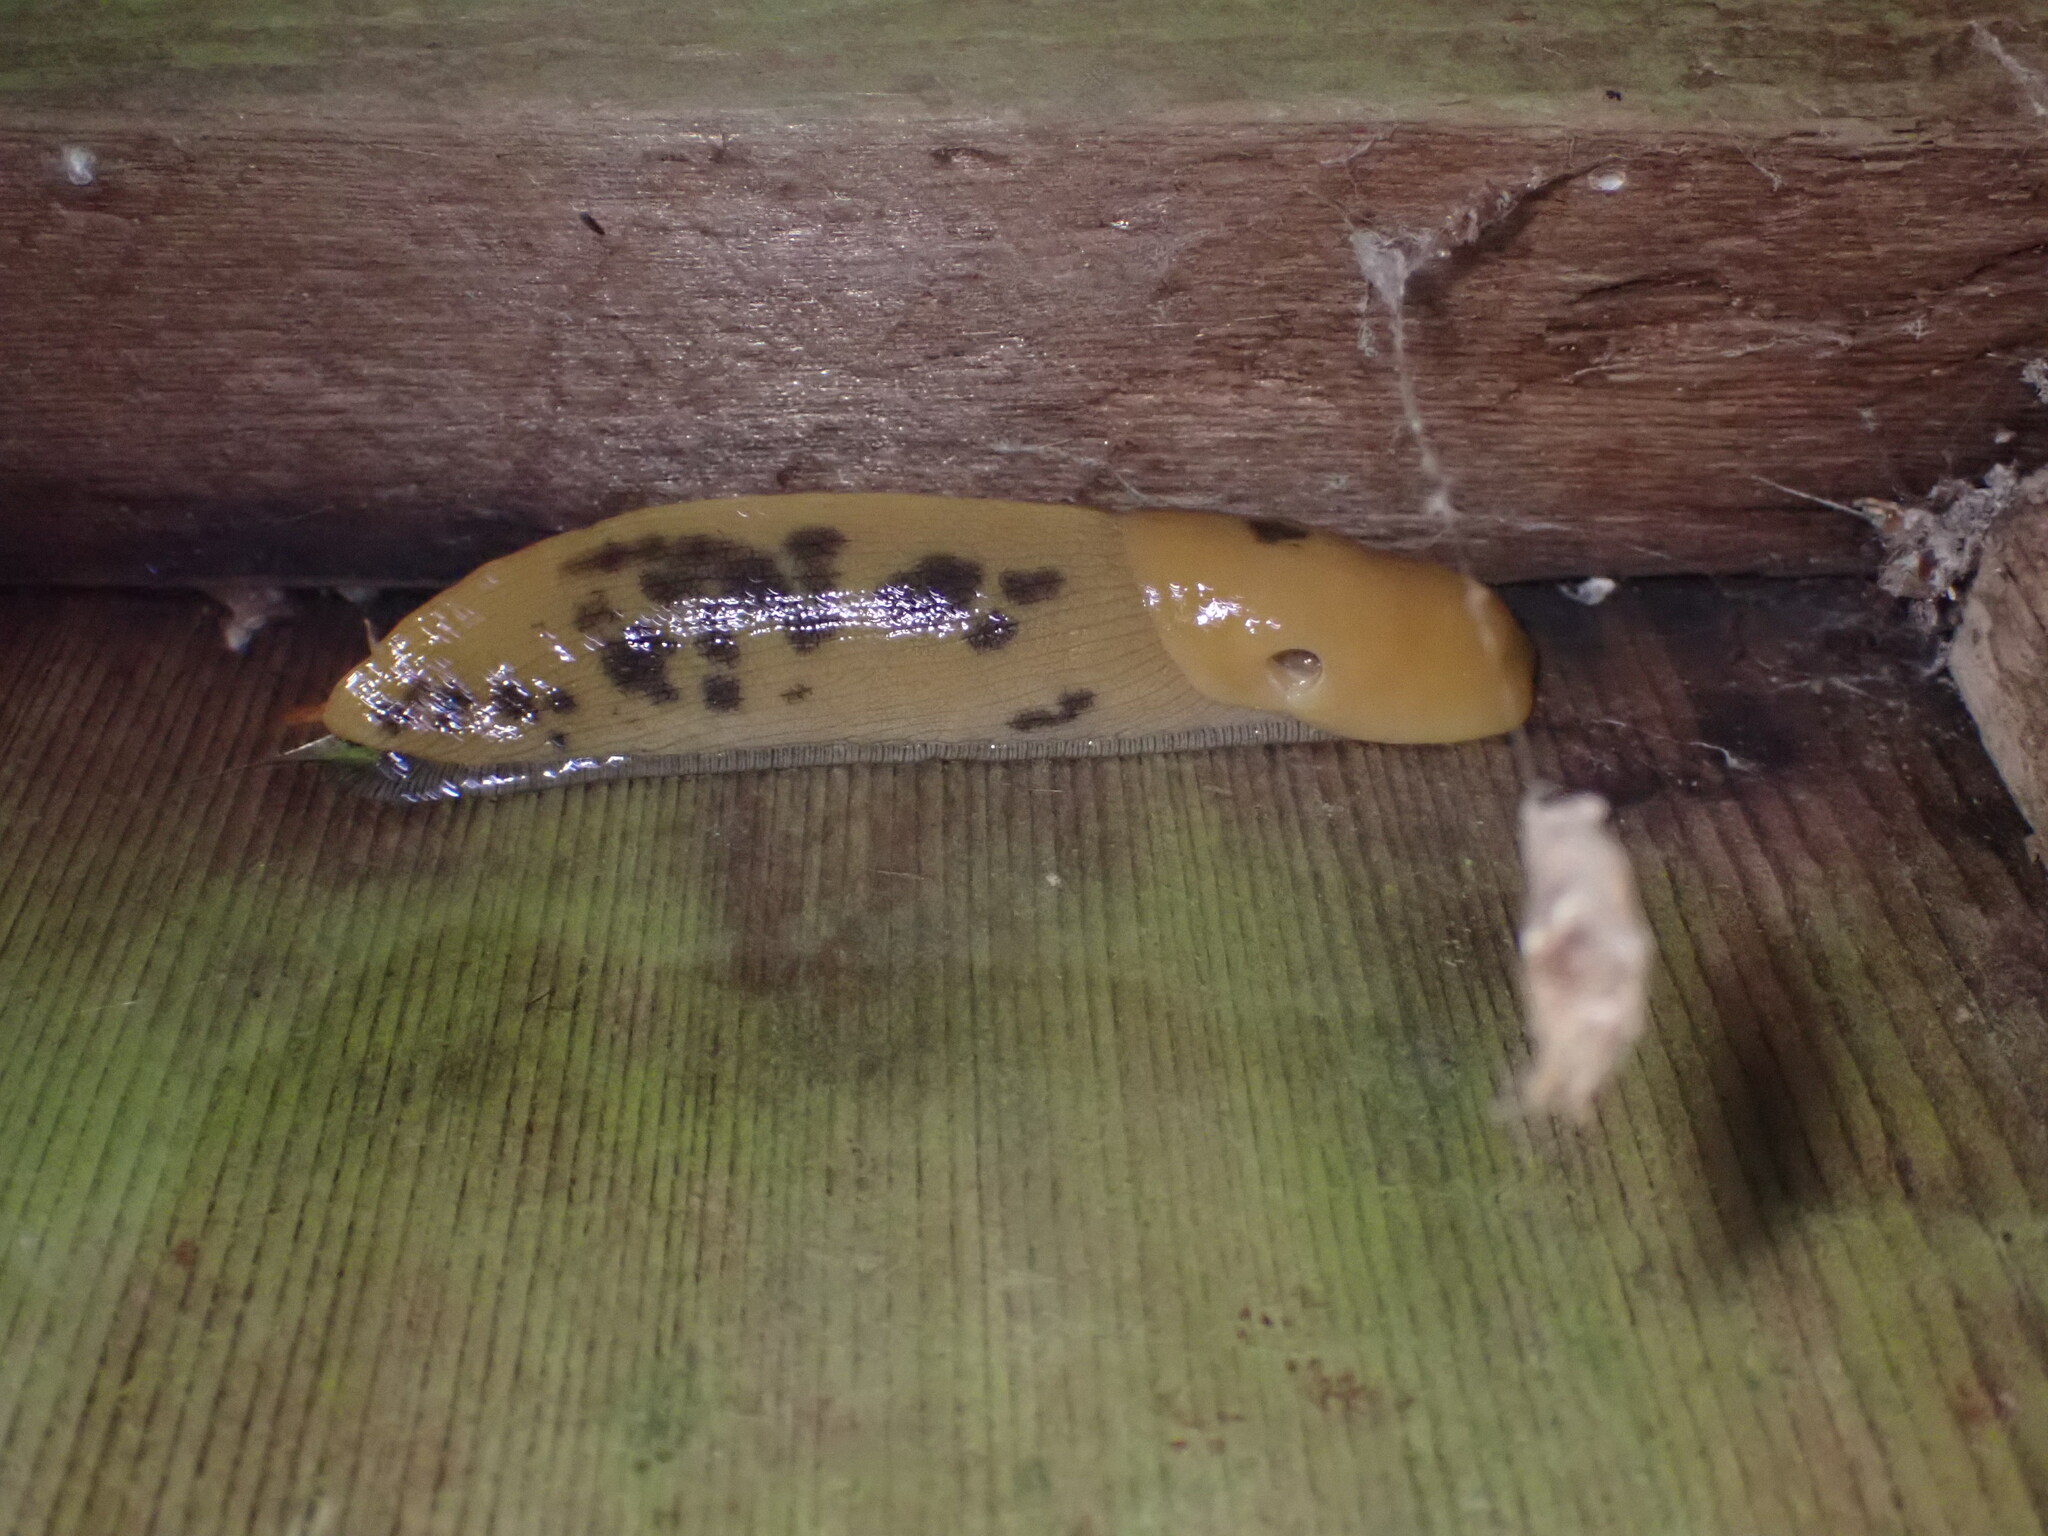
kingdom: Animalia
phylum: Mollusca
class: Gastropoda
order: Stylommatophora
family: Ariolimacidae
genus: Ariolimax
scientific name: Ariolimax buttoni
